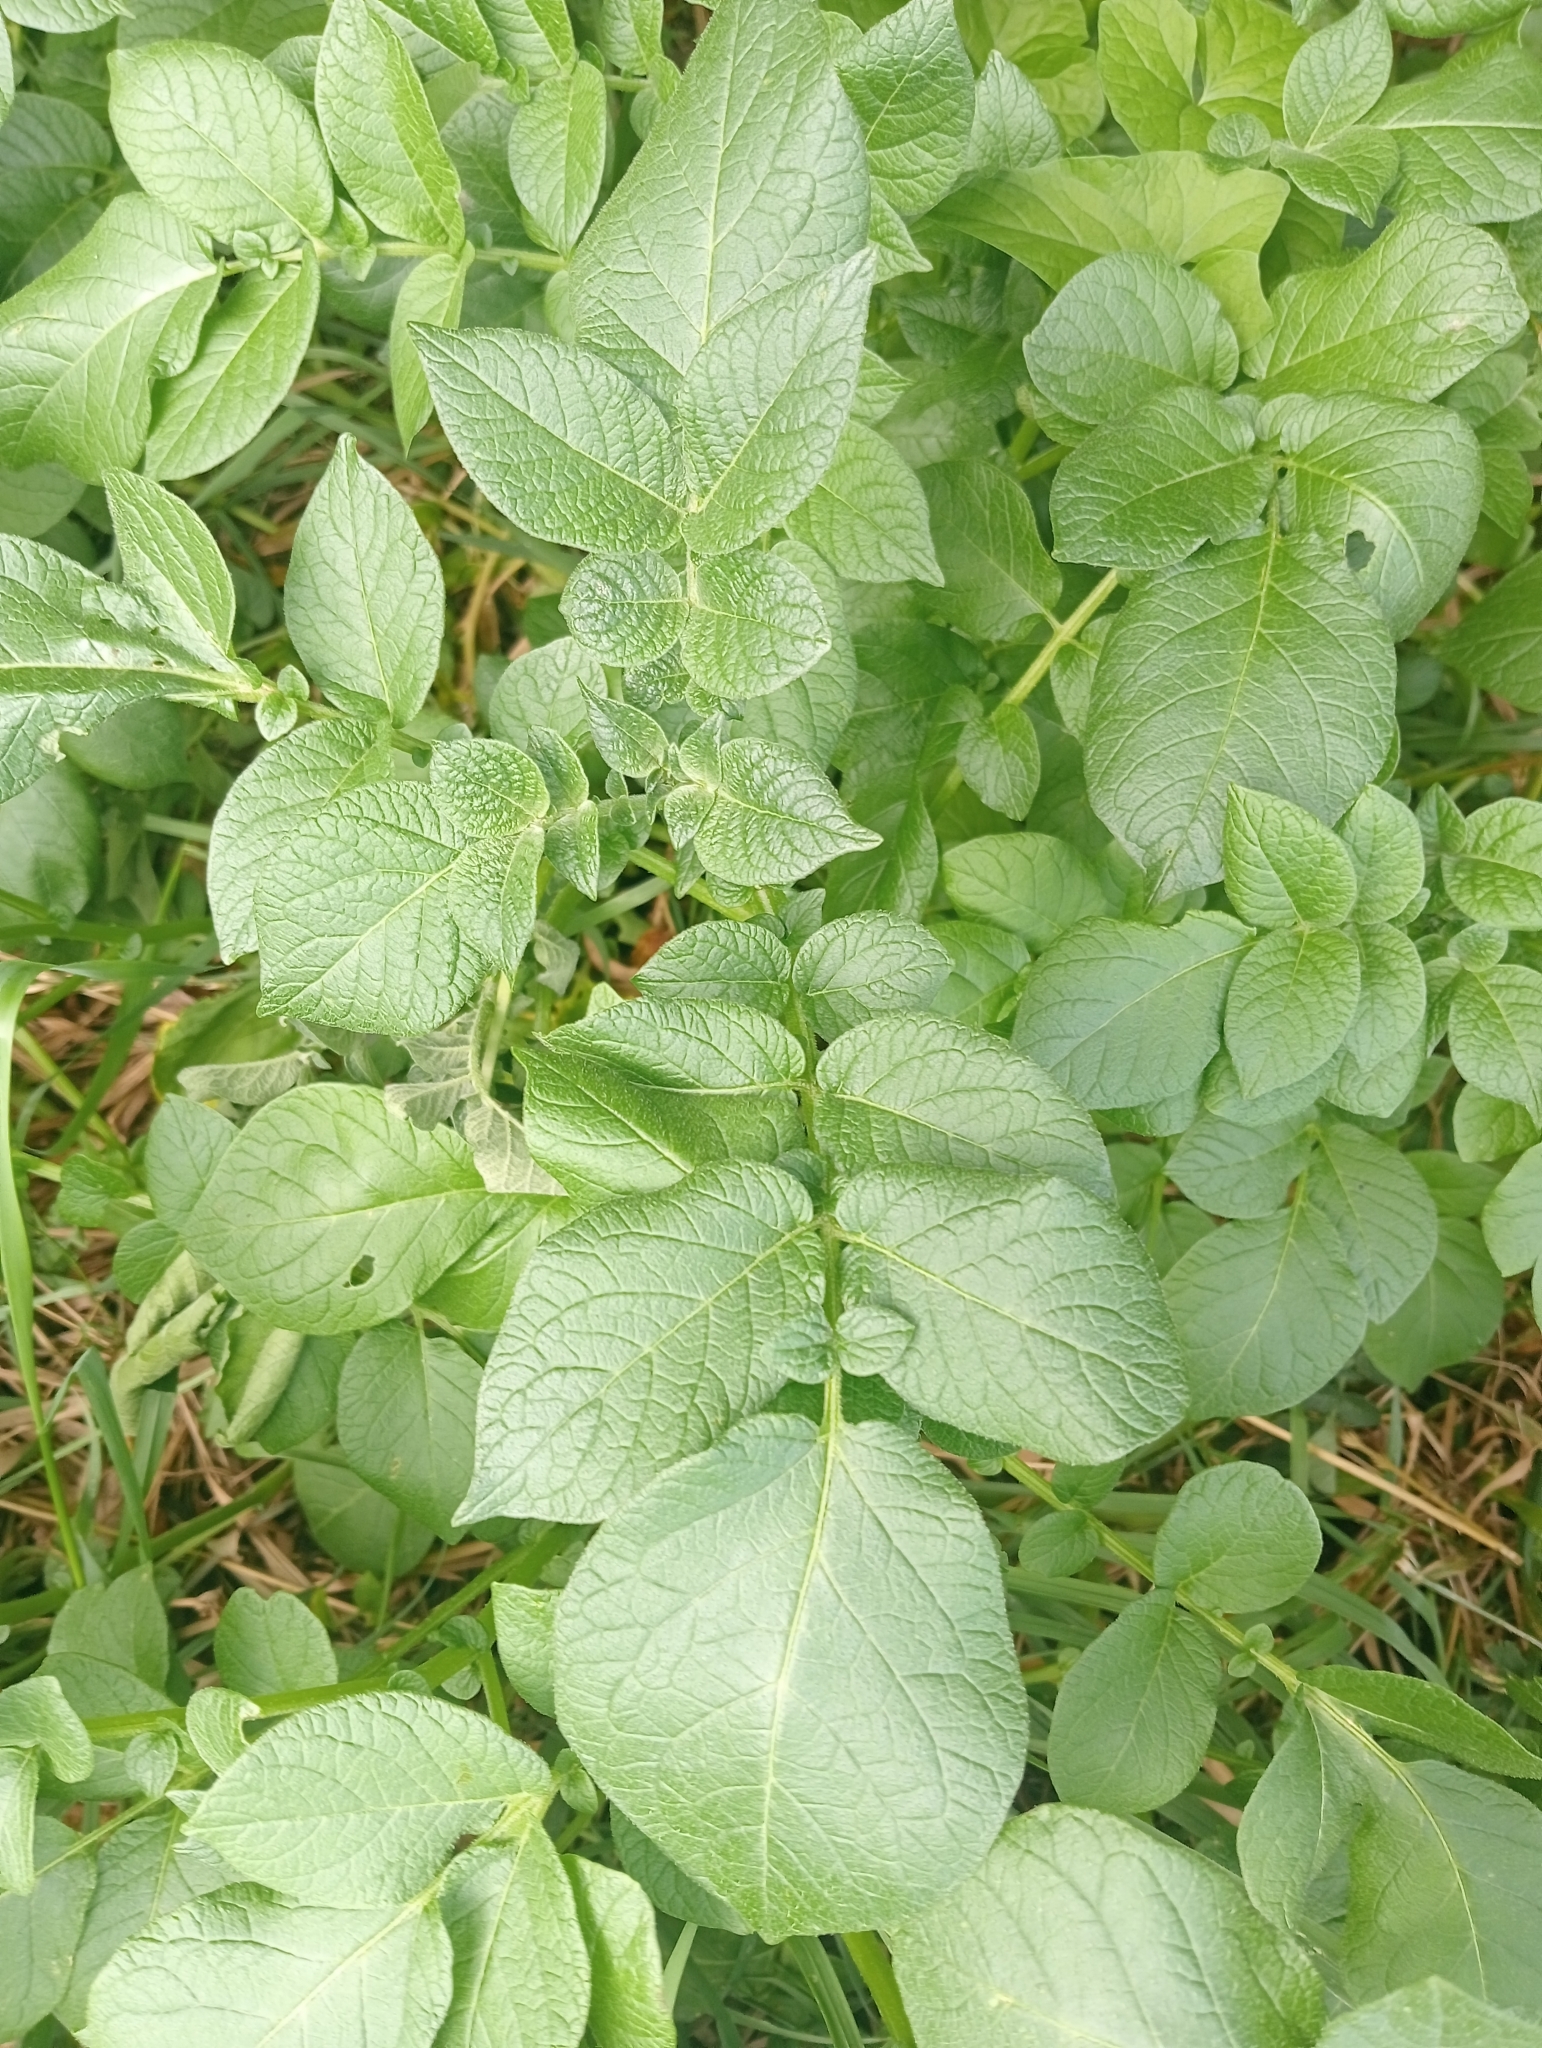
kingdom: Plantae
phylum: Tracheophyta
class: Magnoliopsida
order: Solanales
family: Solanaceae
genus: Solanum
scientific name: Solanum tuberosum
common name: Potato
